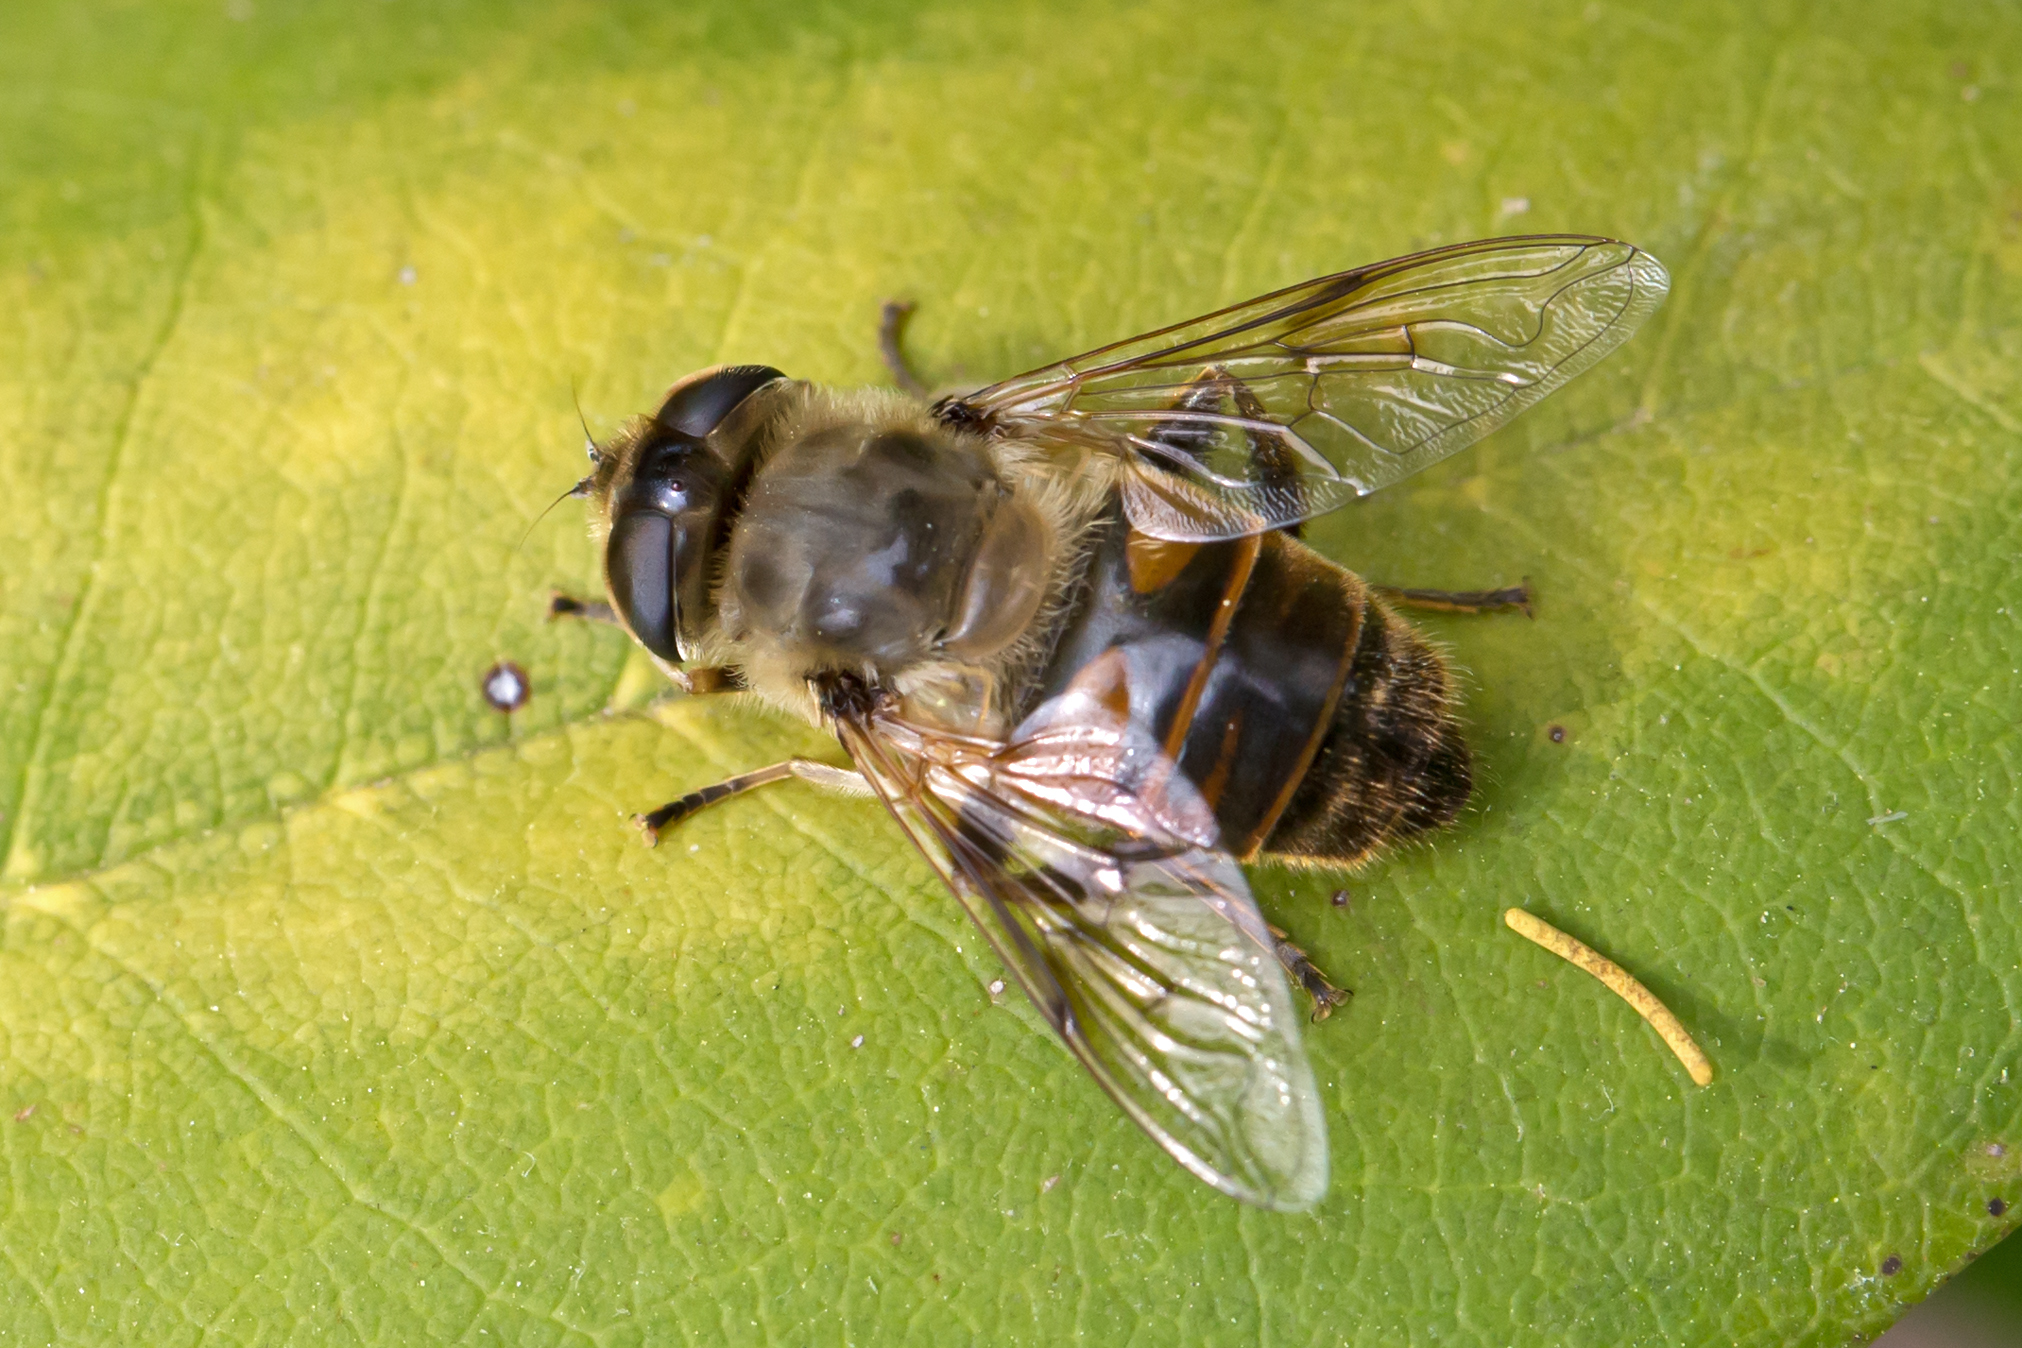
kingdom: Animalia
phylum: Arthropoda
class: Insecta
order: Diptera
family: Syrphidae
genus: Eristalis
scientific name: Eristalis tenax
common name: Drone fly
